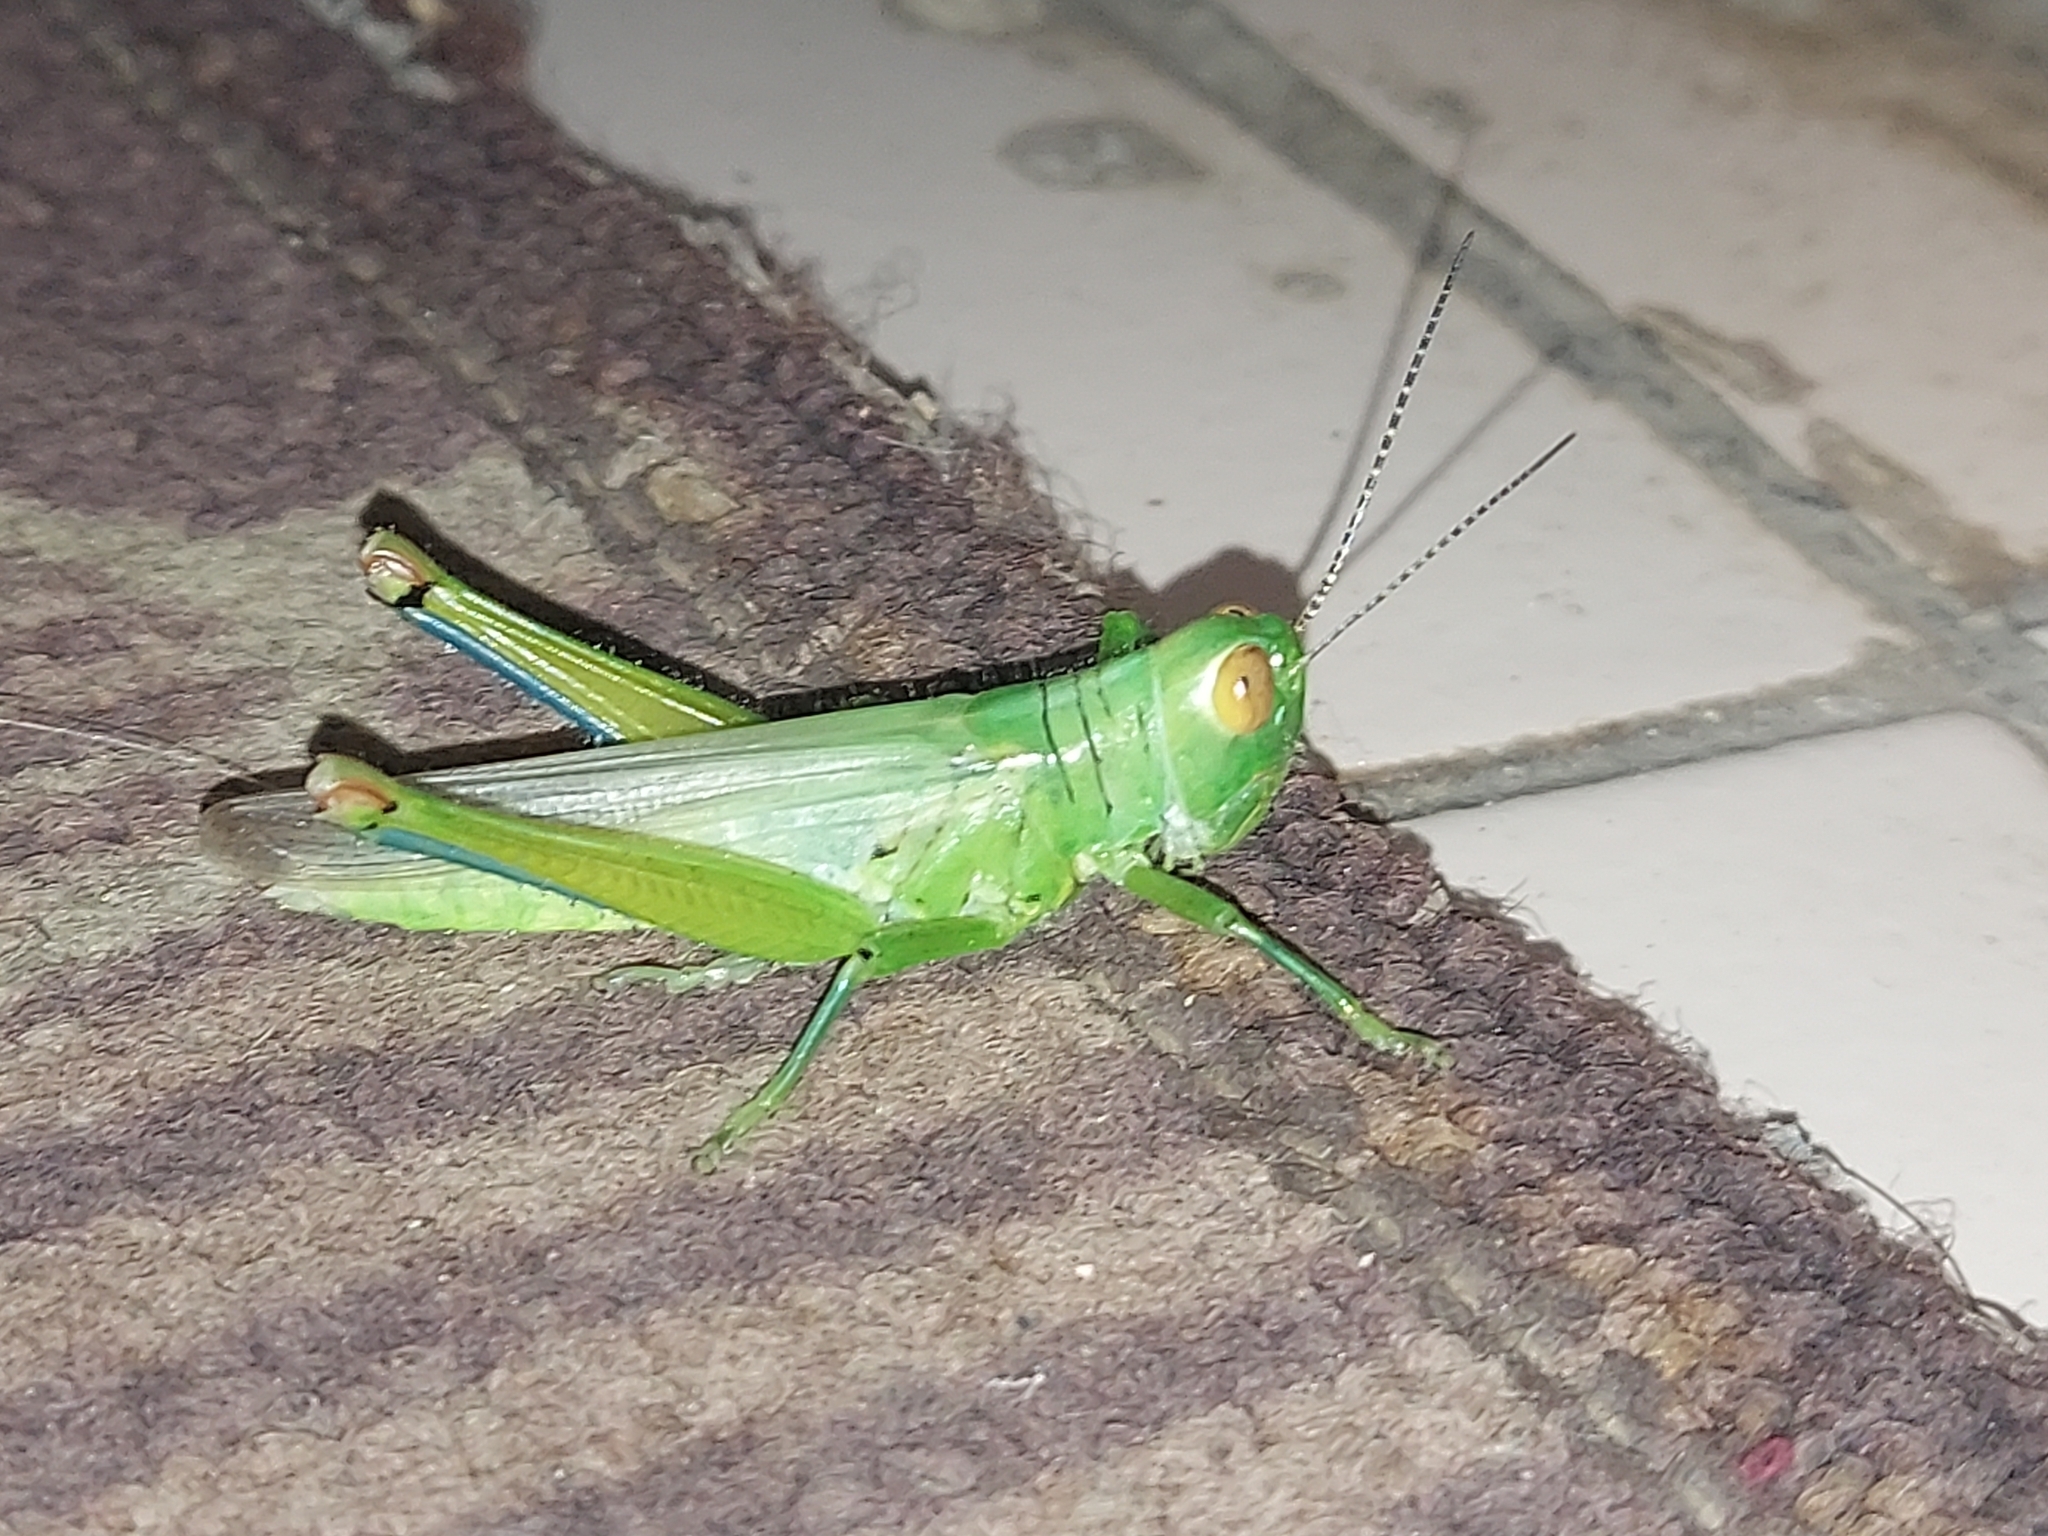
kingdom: Animalia
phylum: Arthropoda
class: Insecta
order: Orthoptera
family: Acrididae
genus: Hieroglyphus
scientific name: Hieroglyphus banian
